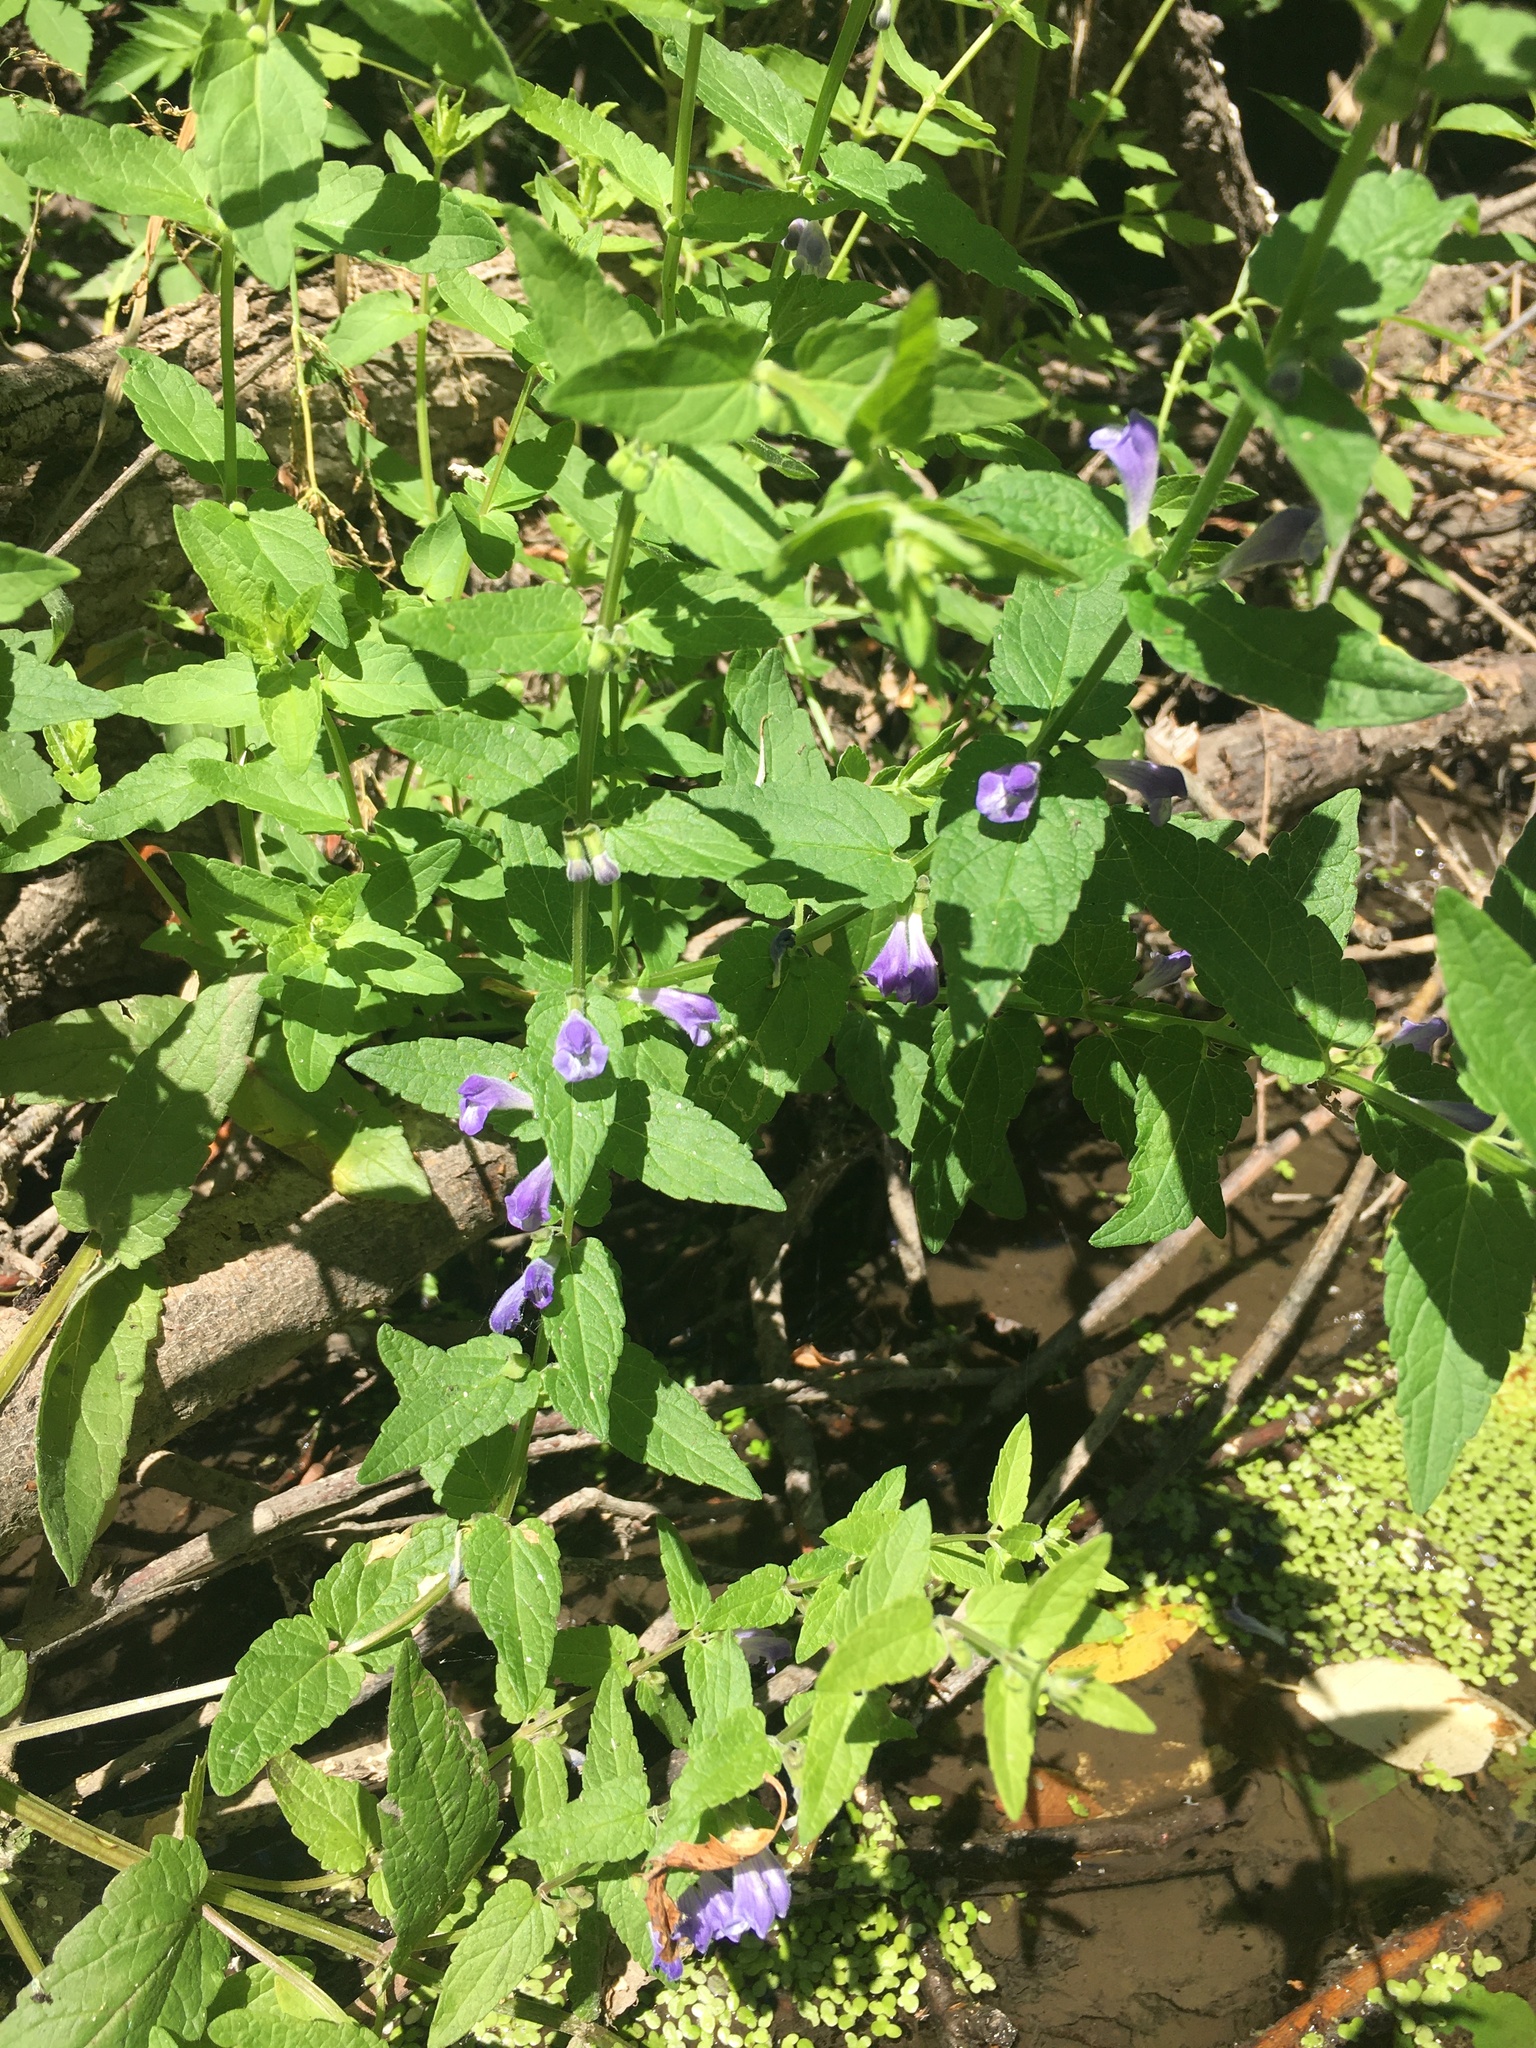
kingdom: Plantae
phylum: Tracheophyta
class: Magnoliopsida
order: Lamiales
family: Lamiaceae
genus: Scutellaria
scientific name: Scutellaria galericulata
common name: Skullcap
